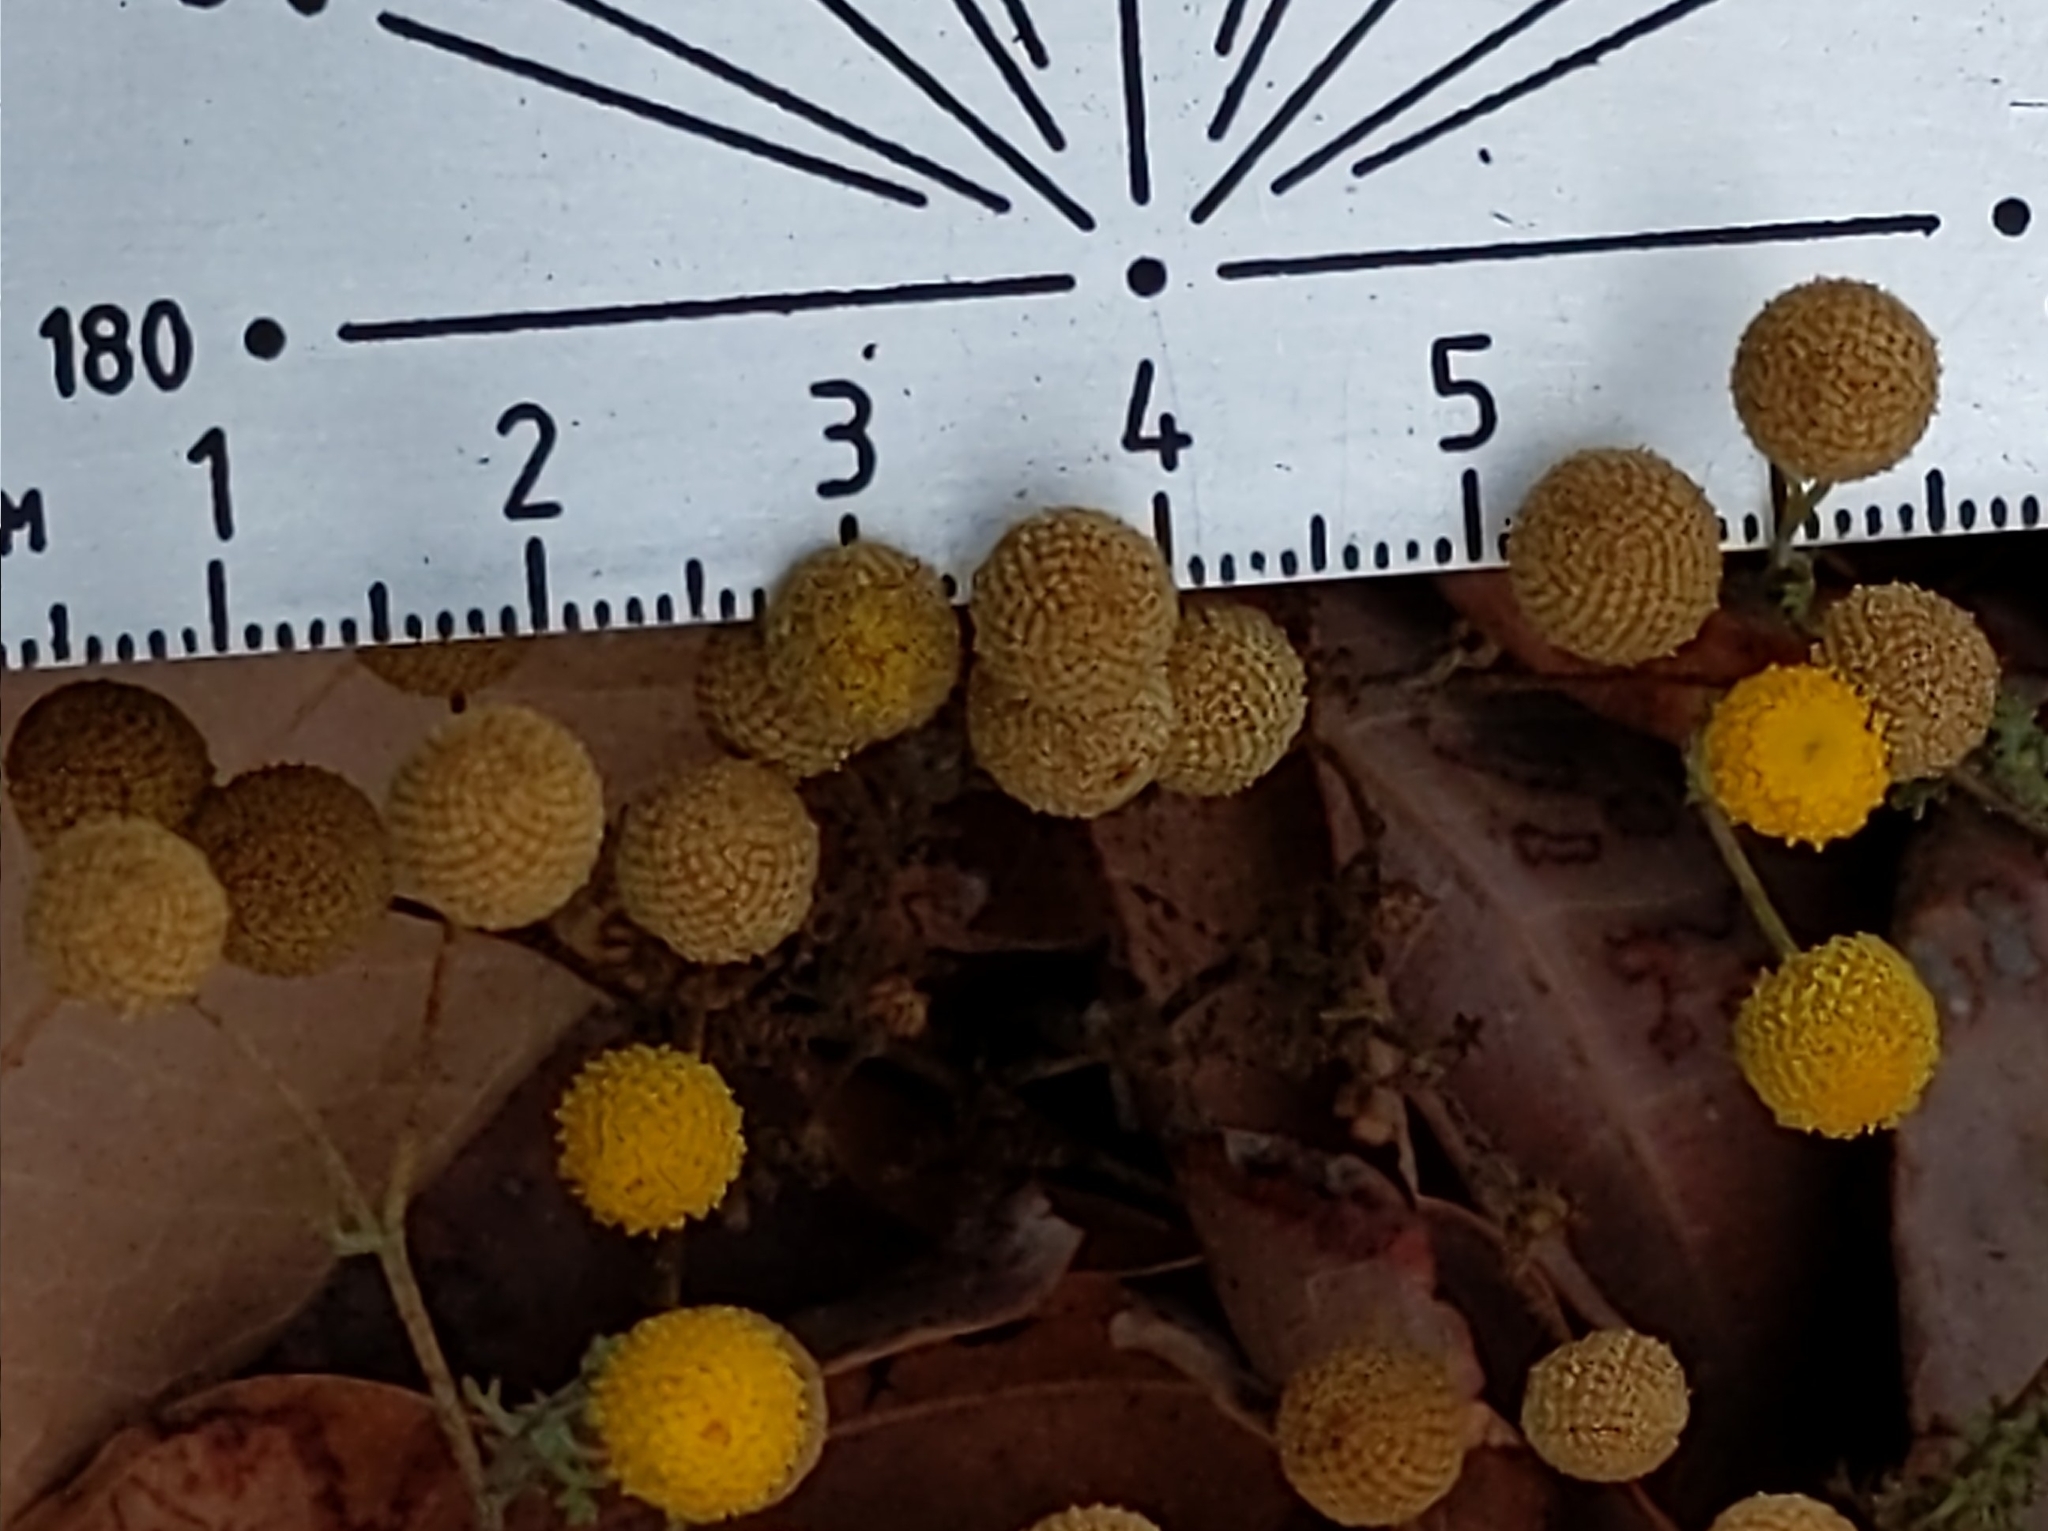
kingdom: Plantae
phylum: Tracheophyta
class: Magnoliopsida
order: Asterales
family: Asteraceae
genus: Oncosiphon
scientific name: Oncosiphon pilulifer
